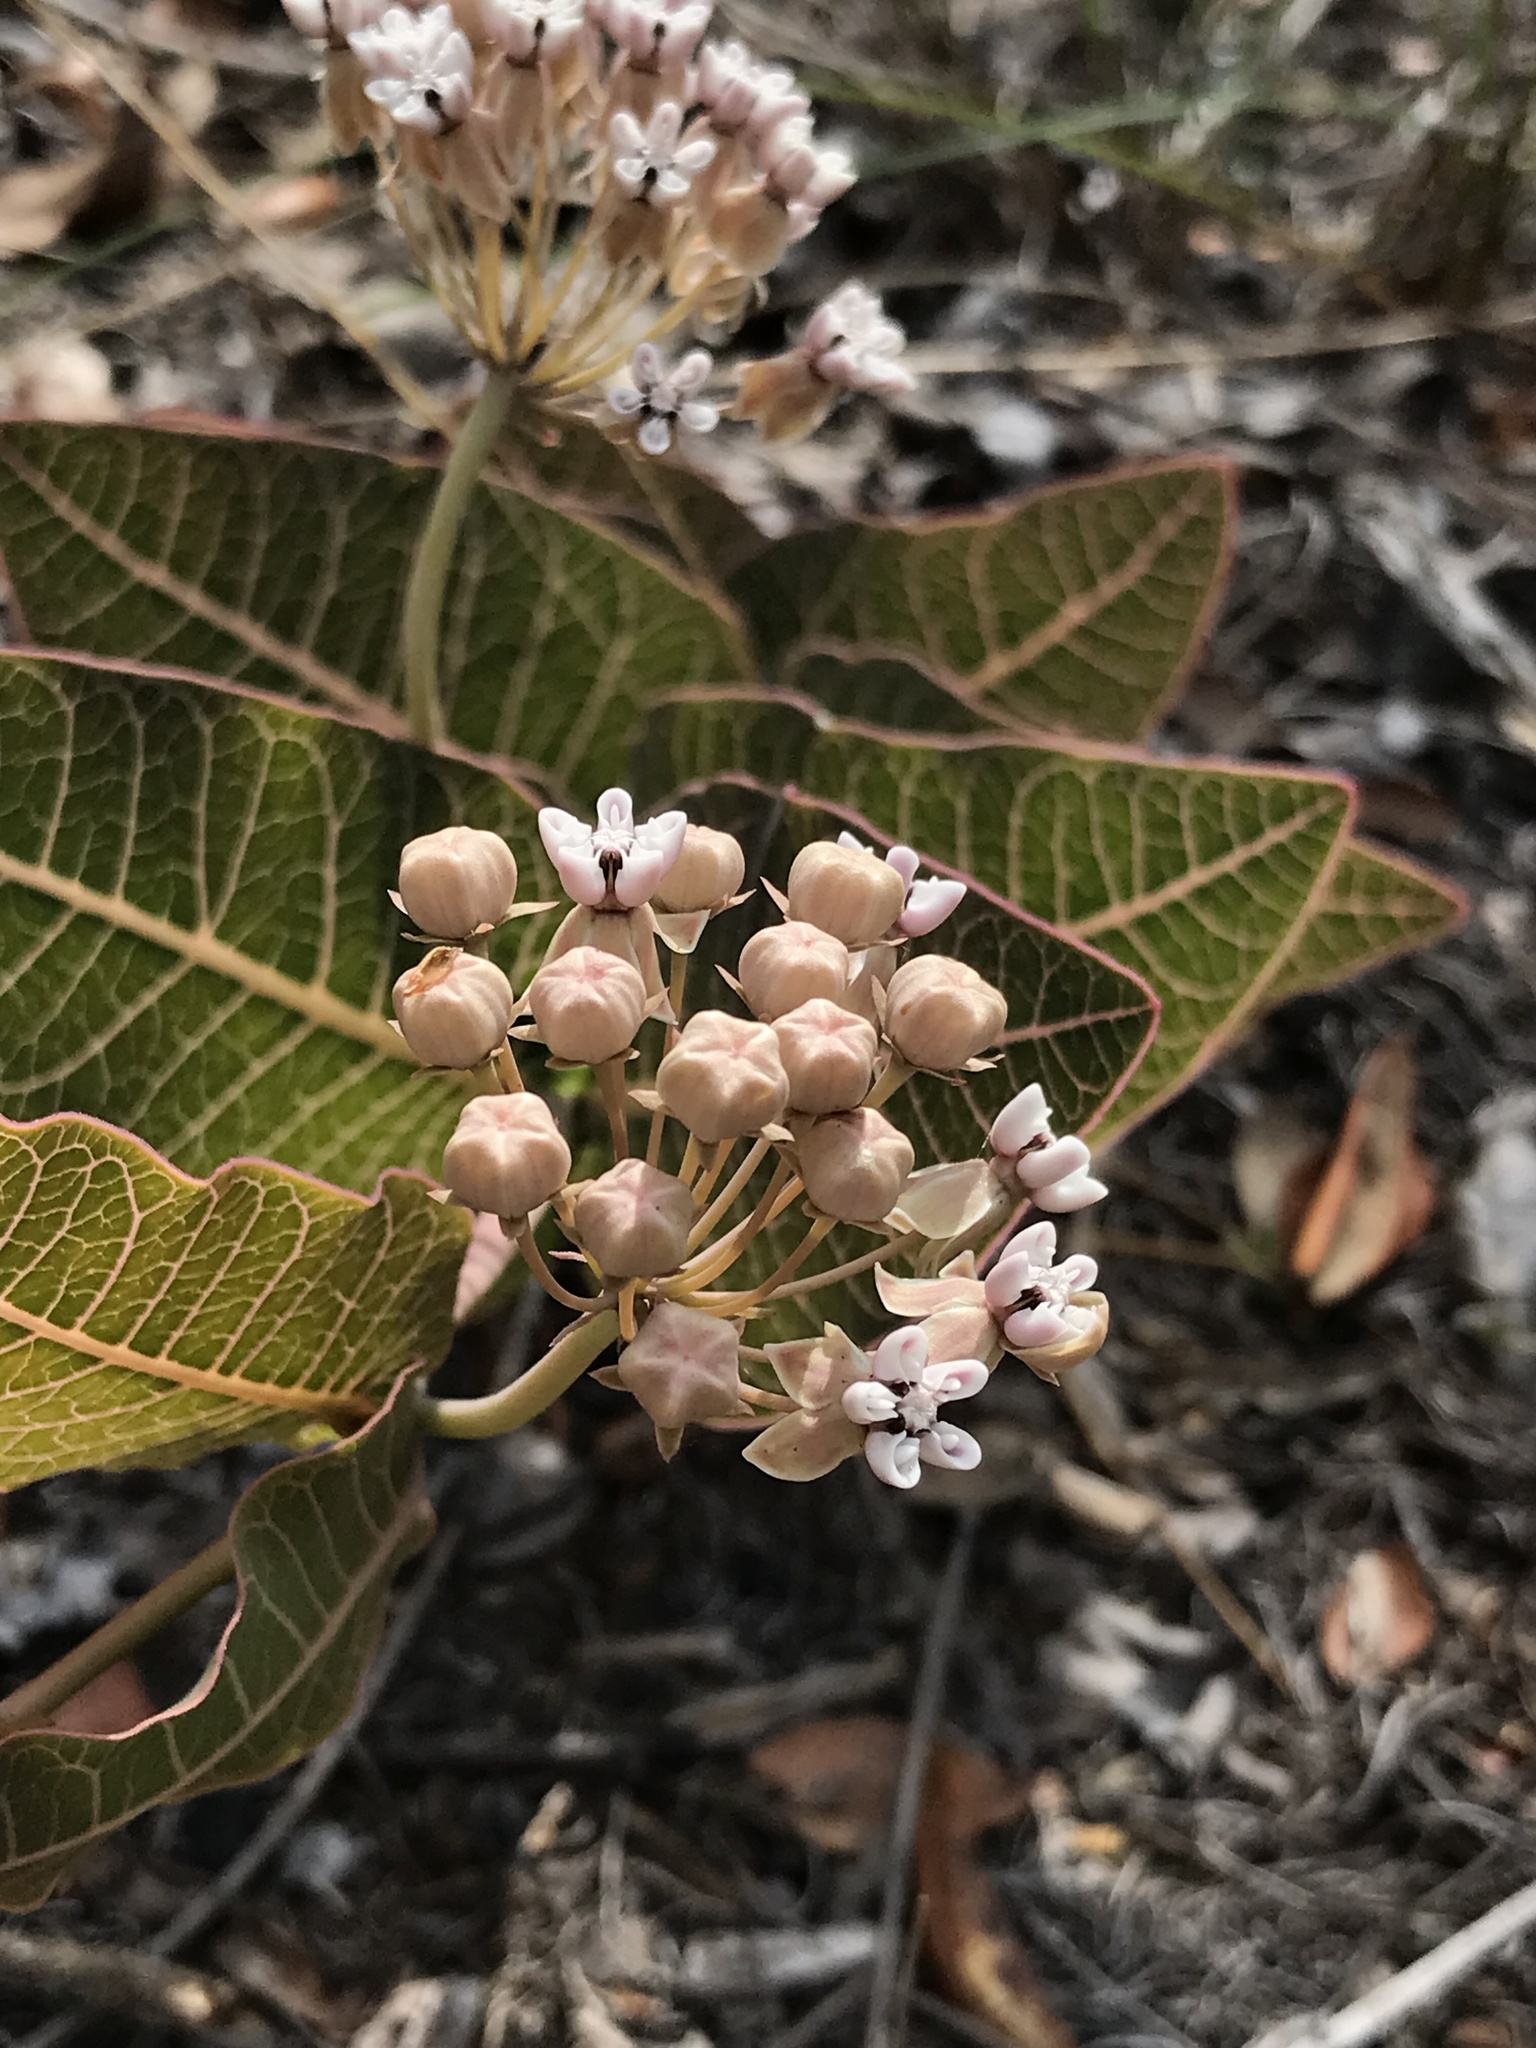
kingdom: Plantae
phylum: Tracheophyta
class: Magnoliopsida
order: Gentianales
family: Apocynaceae
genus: Asclepias
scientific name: Asclepias humistrata
